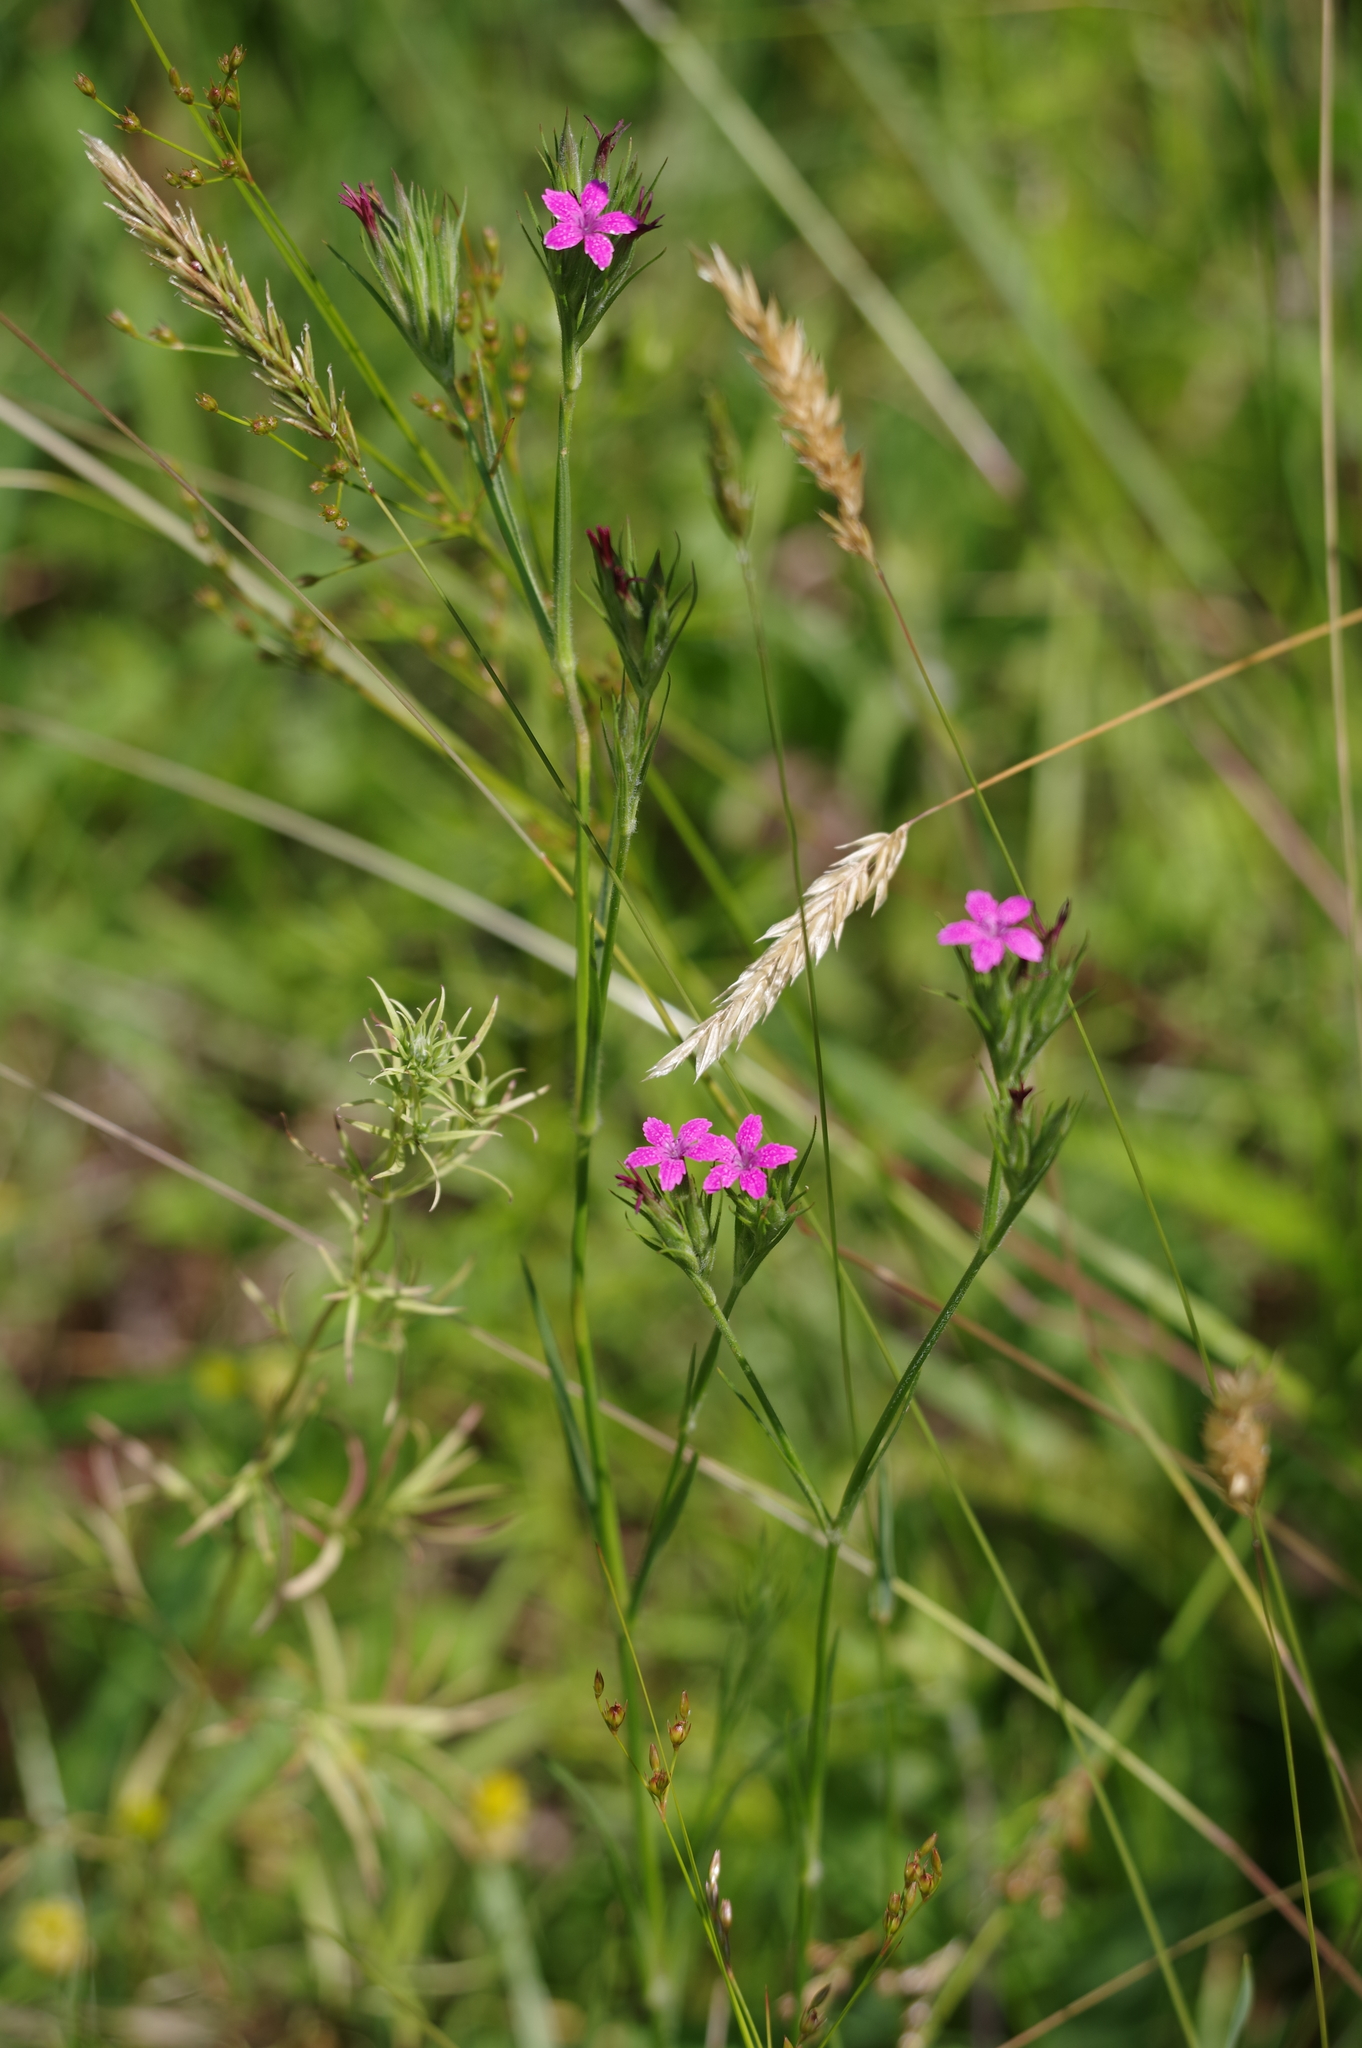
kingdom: Plantae
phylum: Tracheophyta
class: Magnoliopsida
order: Caryophyllales
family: Caryophyllaceae
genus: Dianthus
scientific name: Dianthus armeria
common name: Deptford pink
